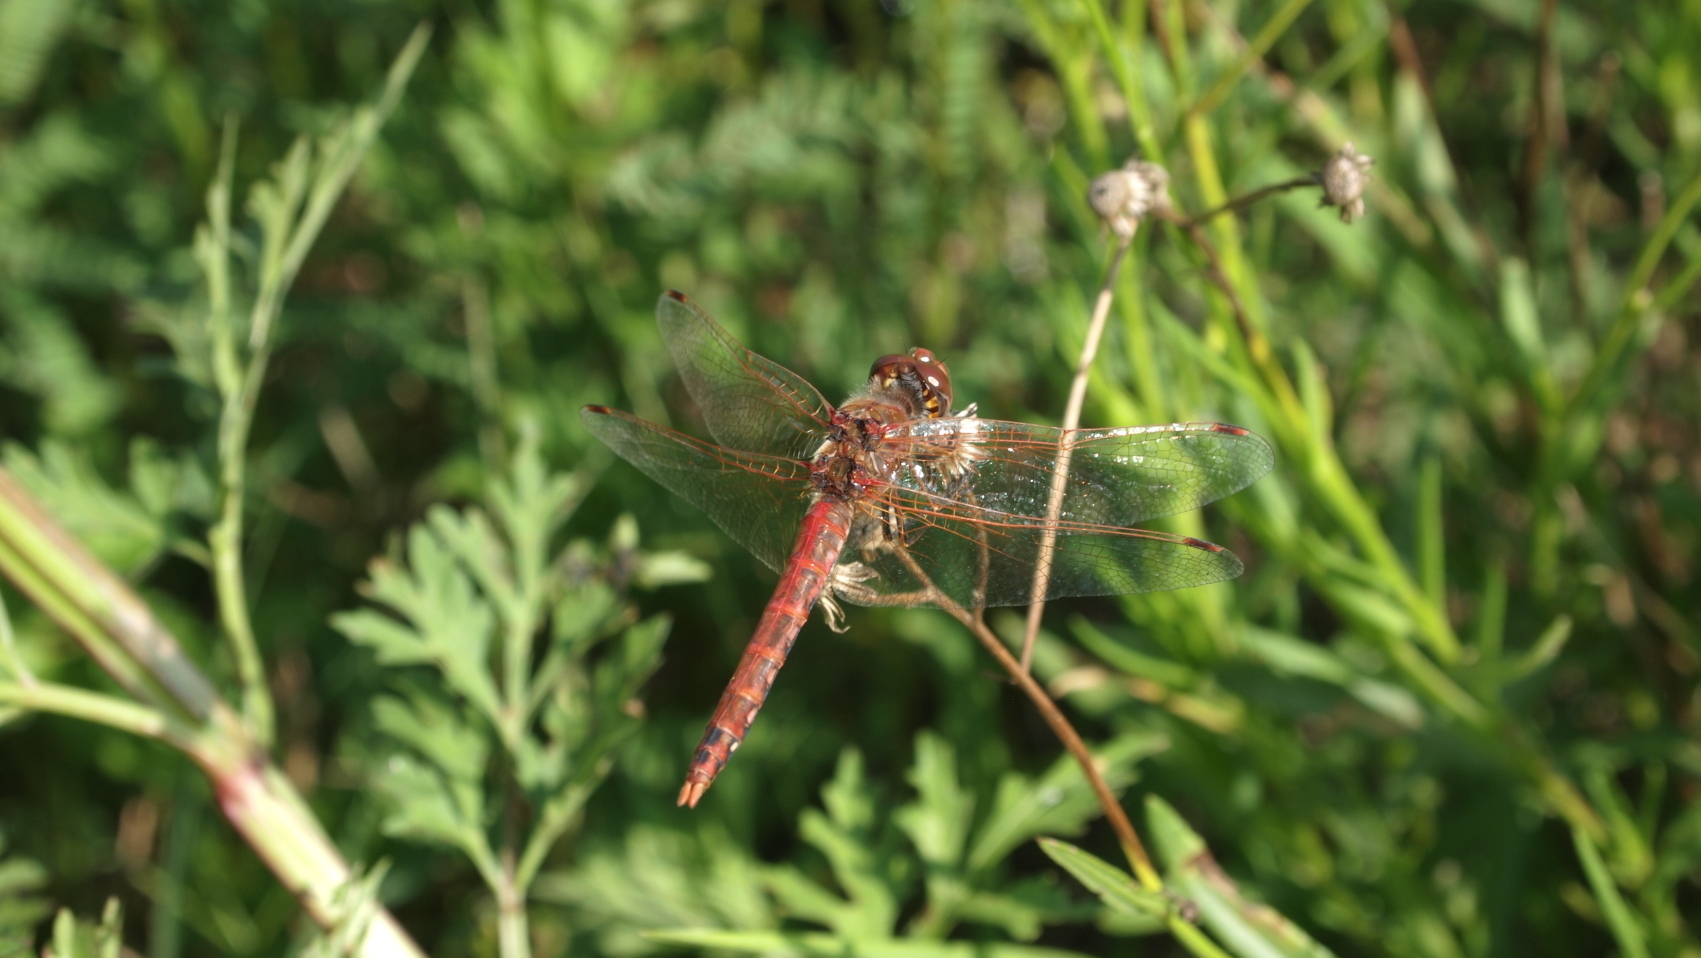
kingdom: Animalia
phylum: Arthropoda
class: Insecta
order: Odonata
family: Libellulidae
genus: Sympetrum
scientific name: Sympetrum corruptum
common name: Variegated meadowhawk
